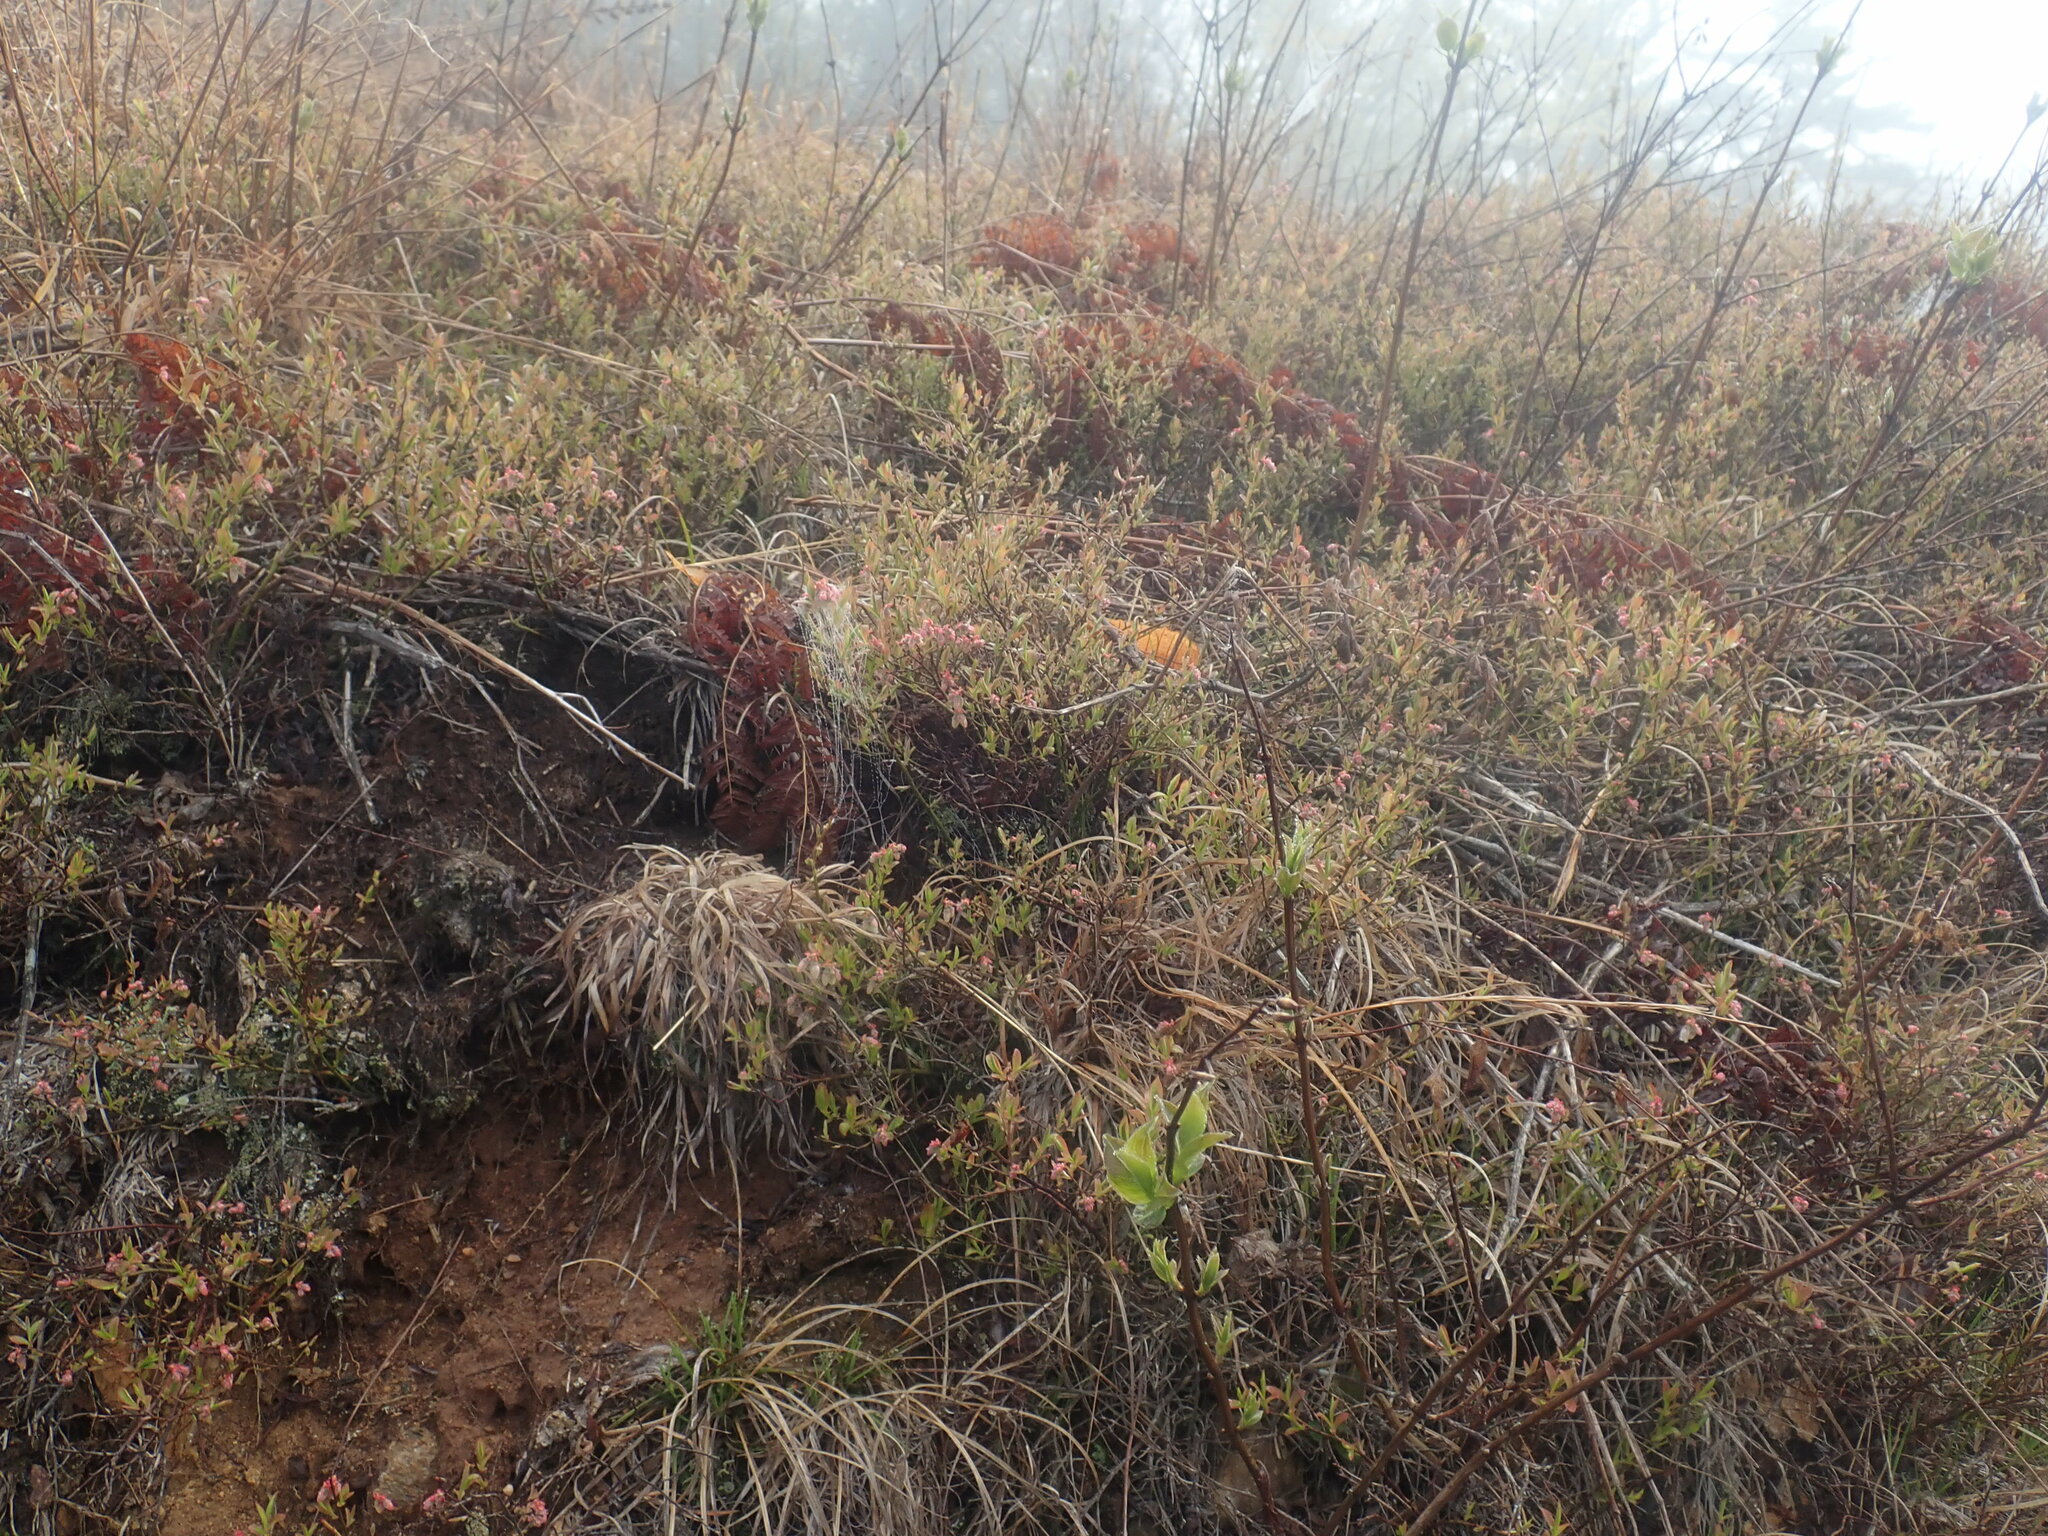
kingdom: Plantae
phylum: Tracheophyta
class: Magnoliopsida
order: Ericales
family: Ericaceae
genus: Vaccinium
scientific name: Vaccinium angustifolium
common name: Early lowbush blueberry
